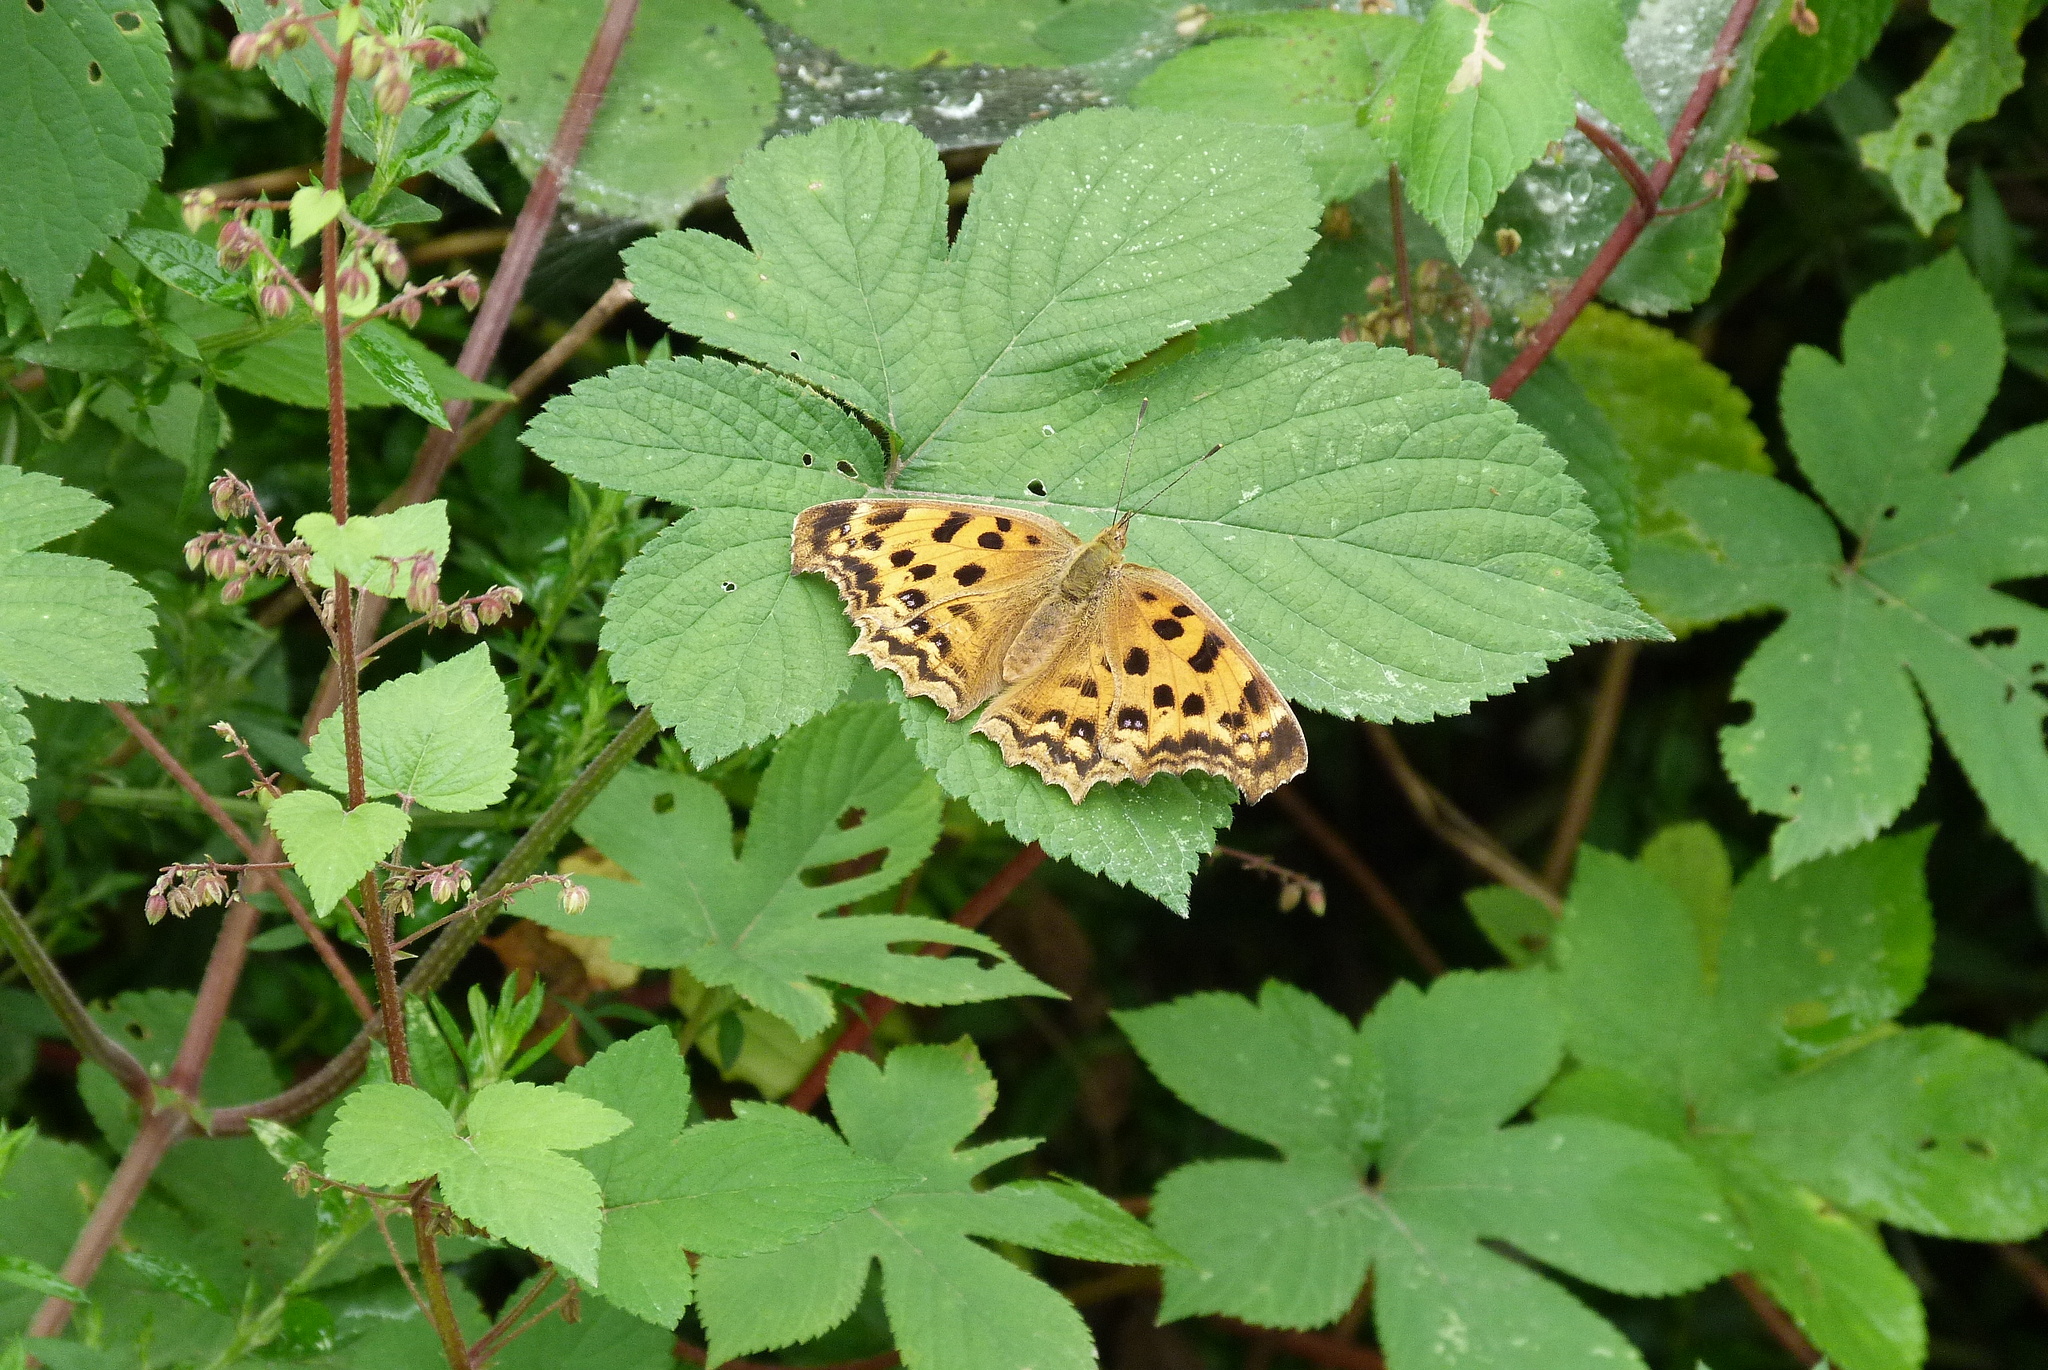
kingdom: Animalia
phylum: Arthropoda
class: Insecta
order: Lepidoptera
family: Nymphalidae
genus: Polygonia
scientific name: Polygonia c-aureum
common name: Asian comma
